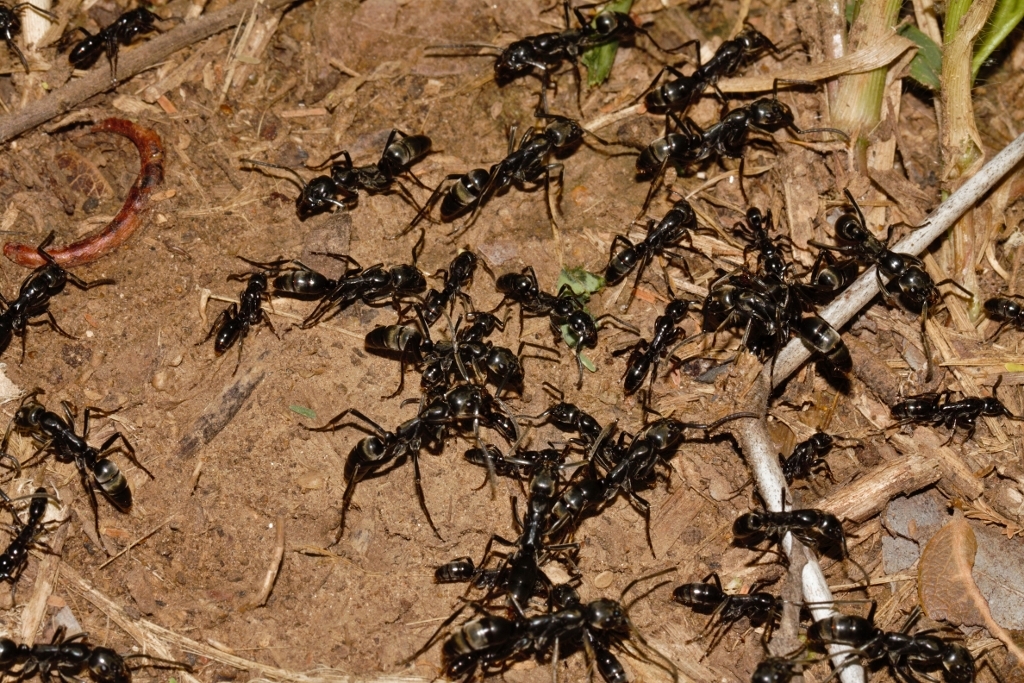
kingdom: Animalia
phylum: Arthropoda
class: Insecta
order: Hymenoptera
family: Formicidae
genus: Megaponera
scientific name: Megaponera analis
